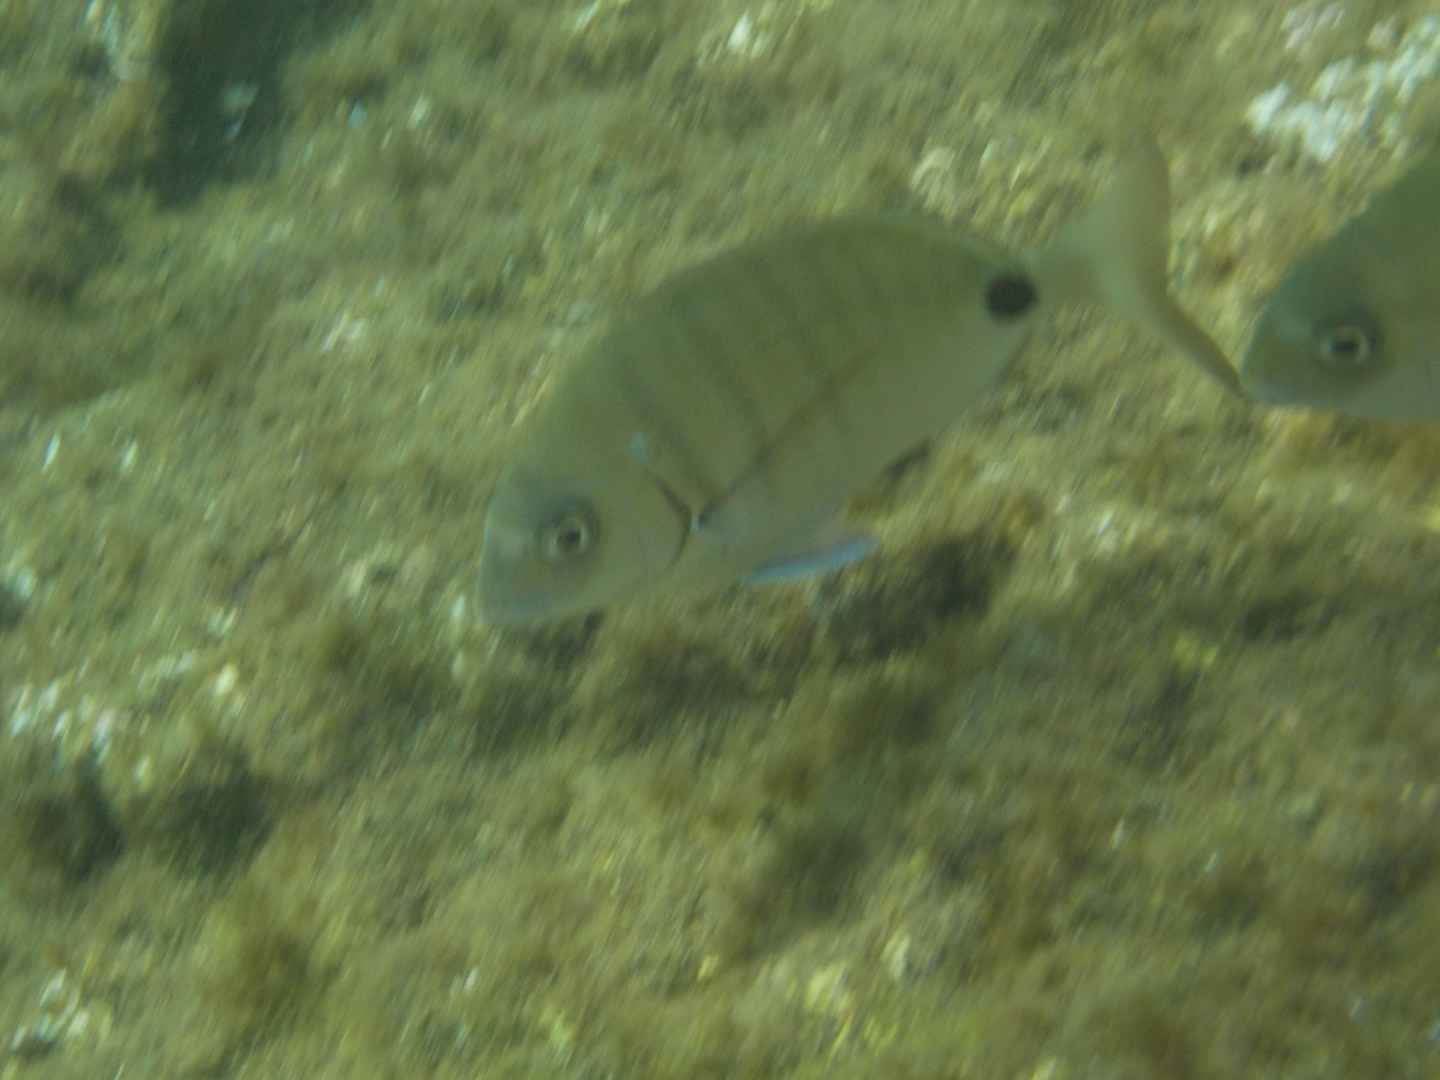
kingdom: Animalia
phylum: Chordata
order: Perciformes
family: Sparidae
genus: Diplodus
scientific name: Diplodus cadenati
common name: Moroccan white seabream
